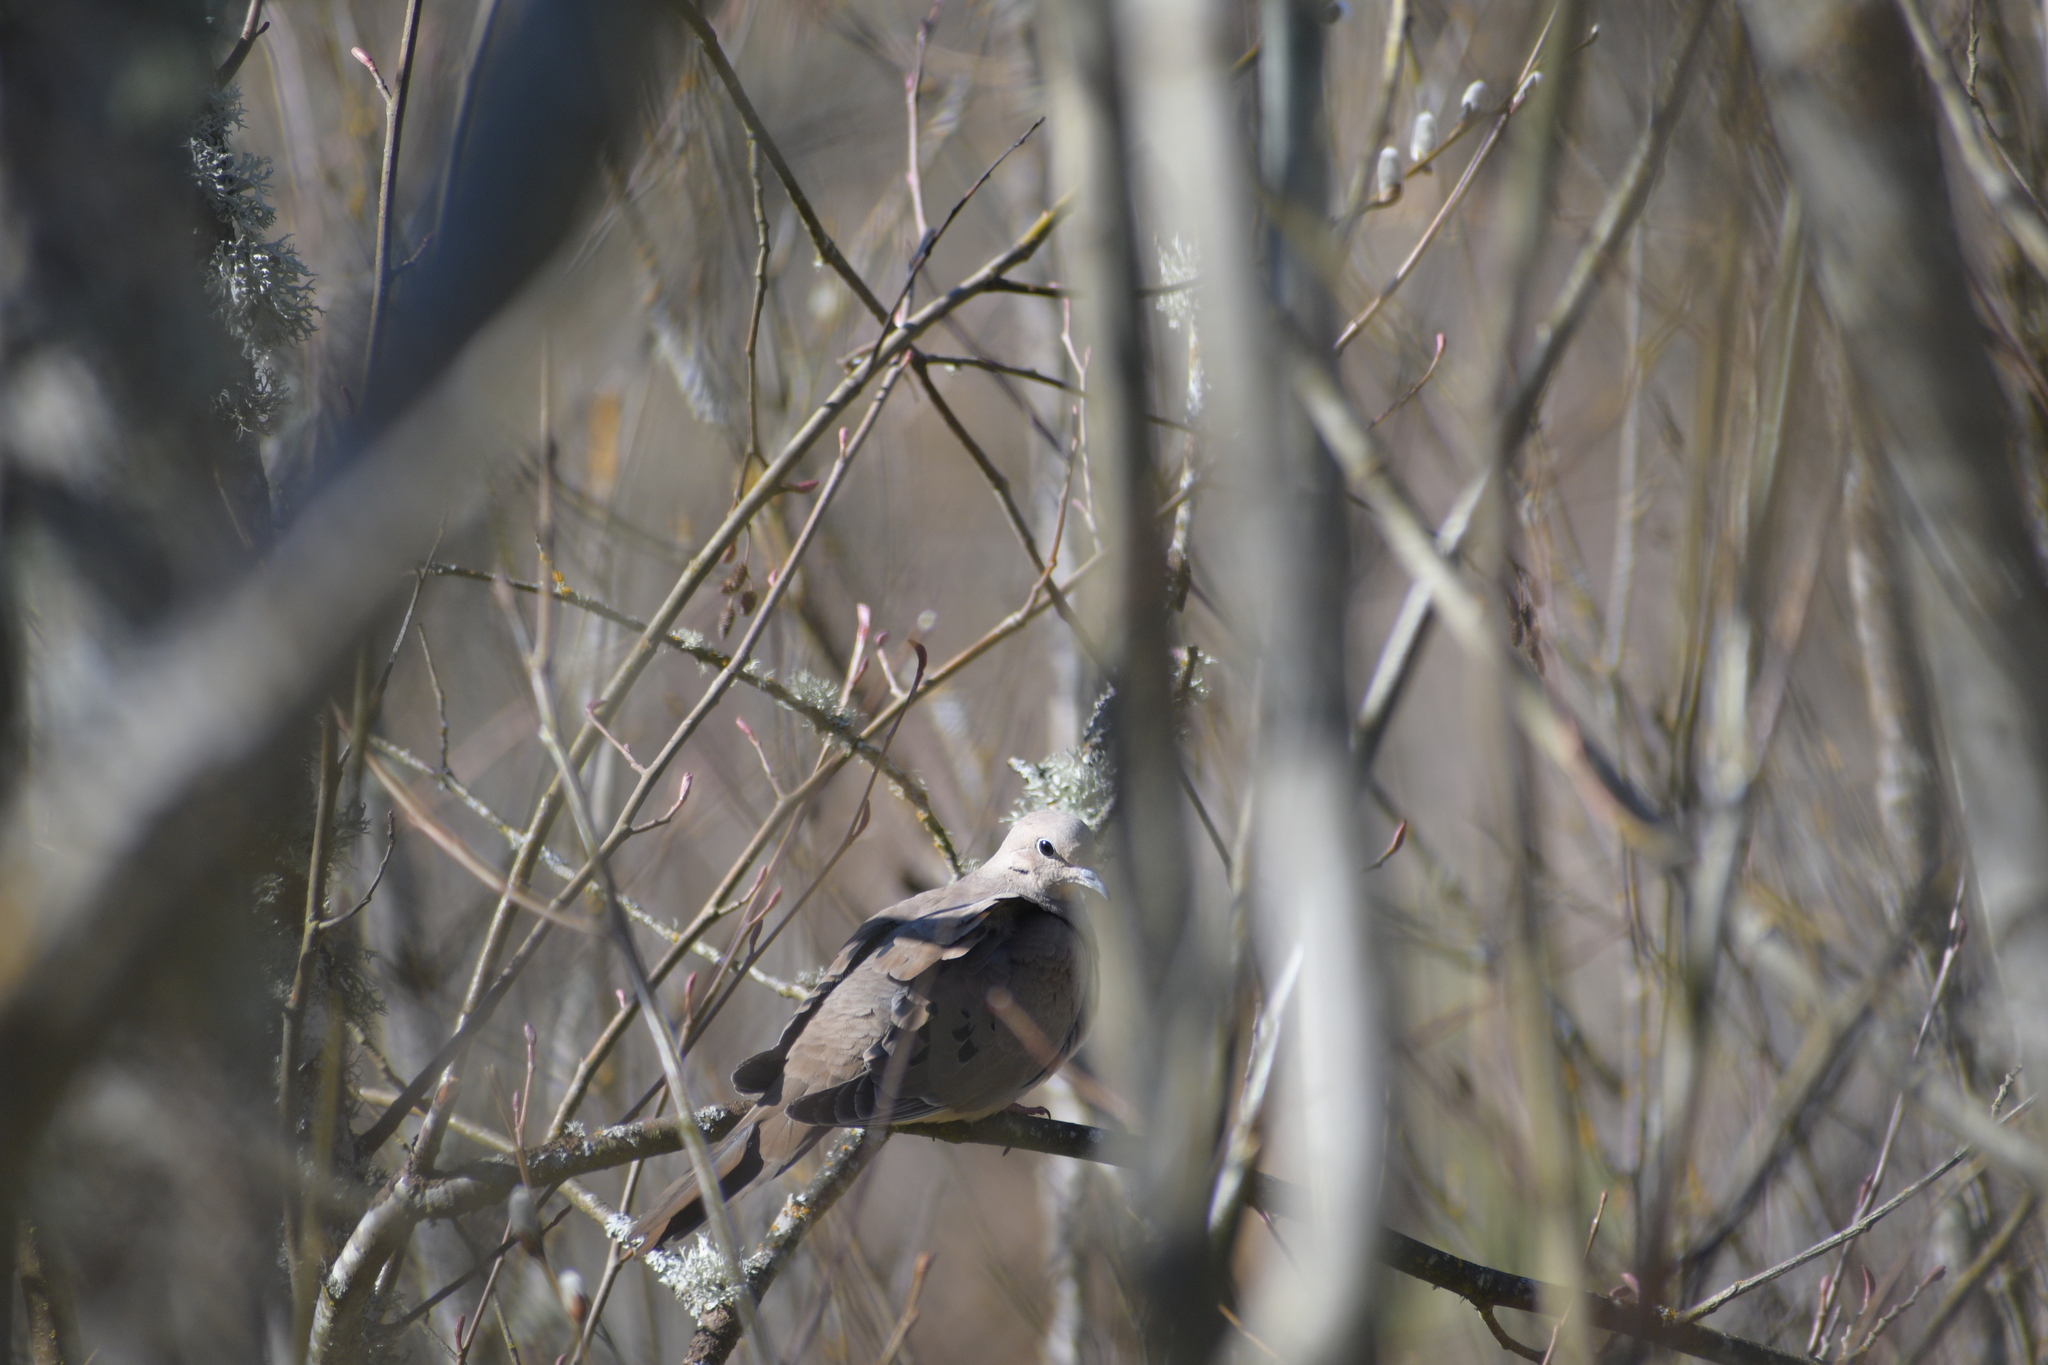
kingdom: Animalia
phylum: Chordata
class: Aves
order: Columbiformes
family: Columbidae
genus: Zenaida
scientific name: Zenaida macroura
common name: Mourning dove
